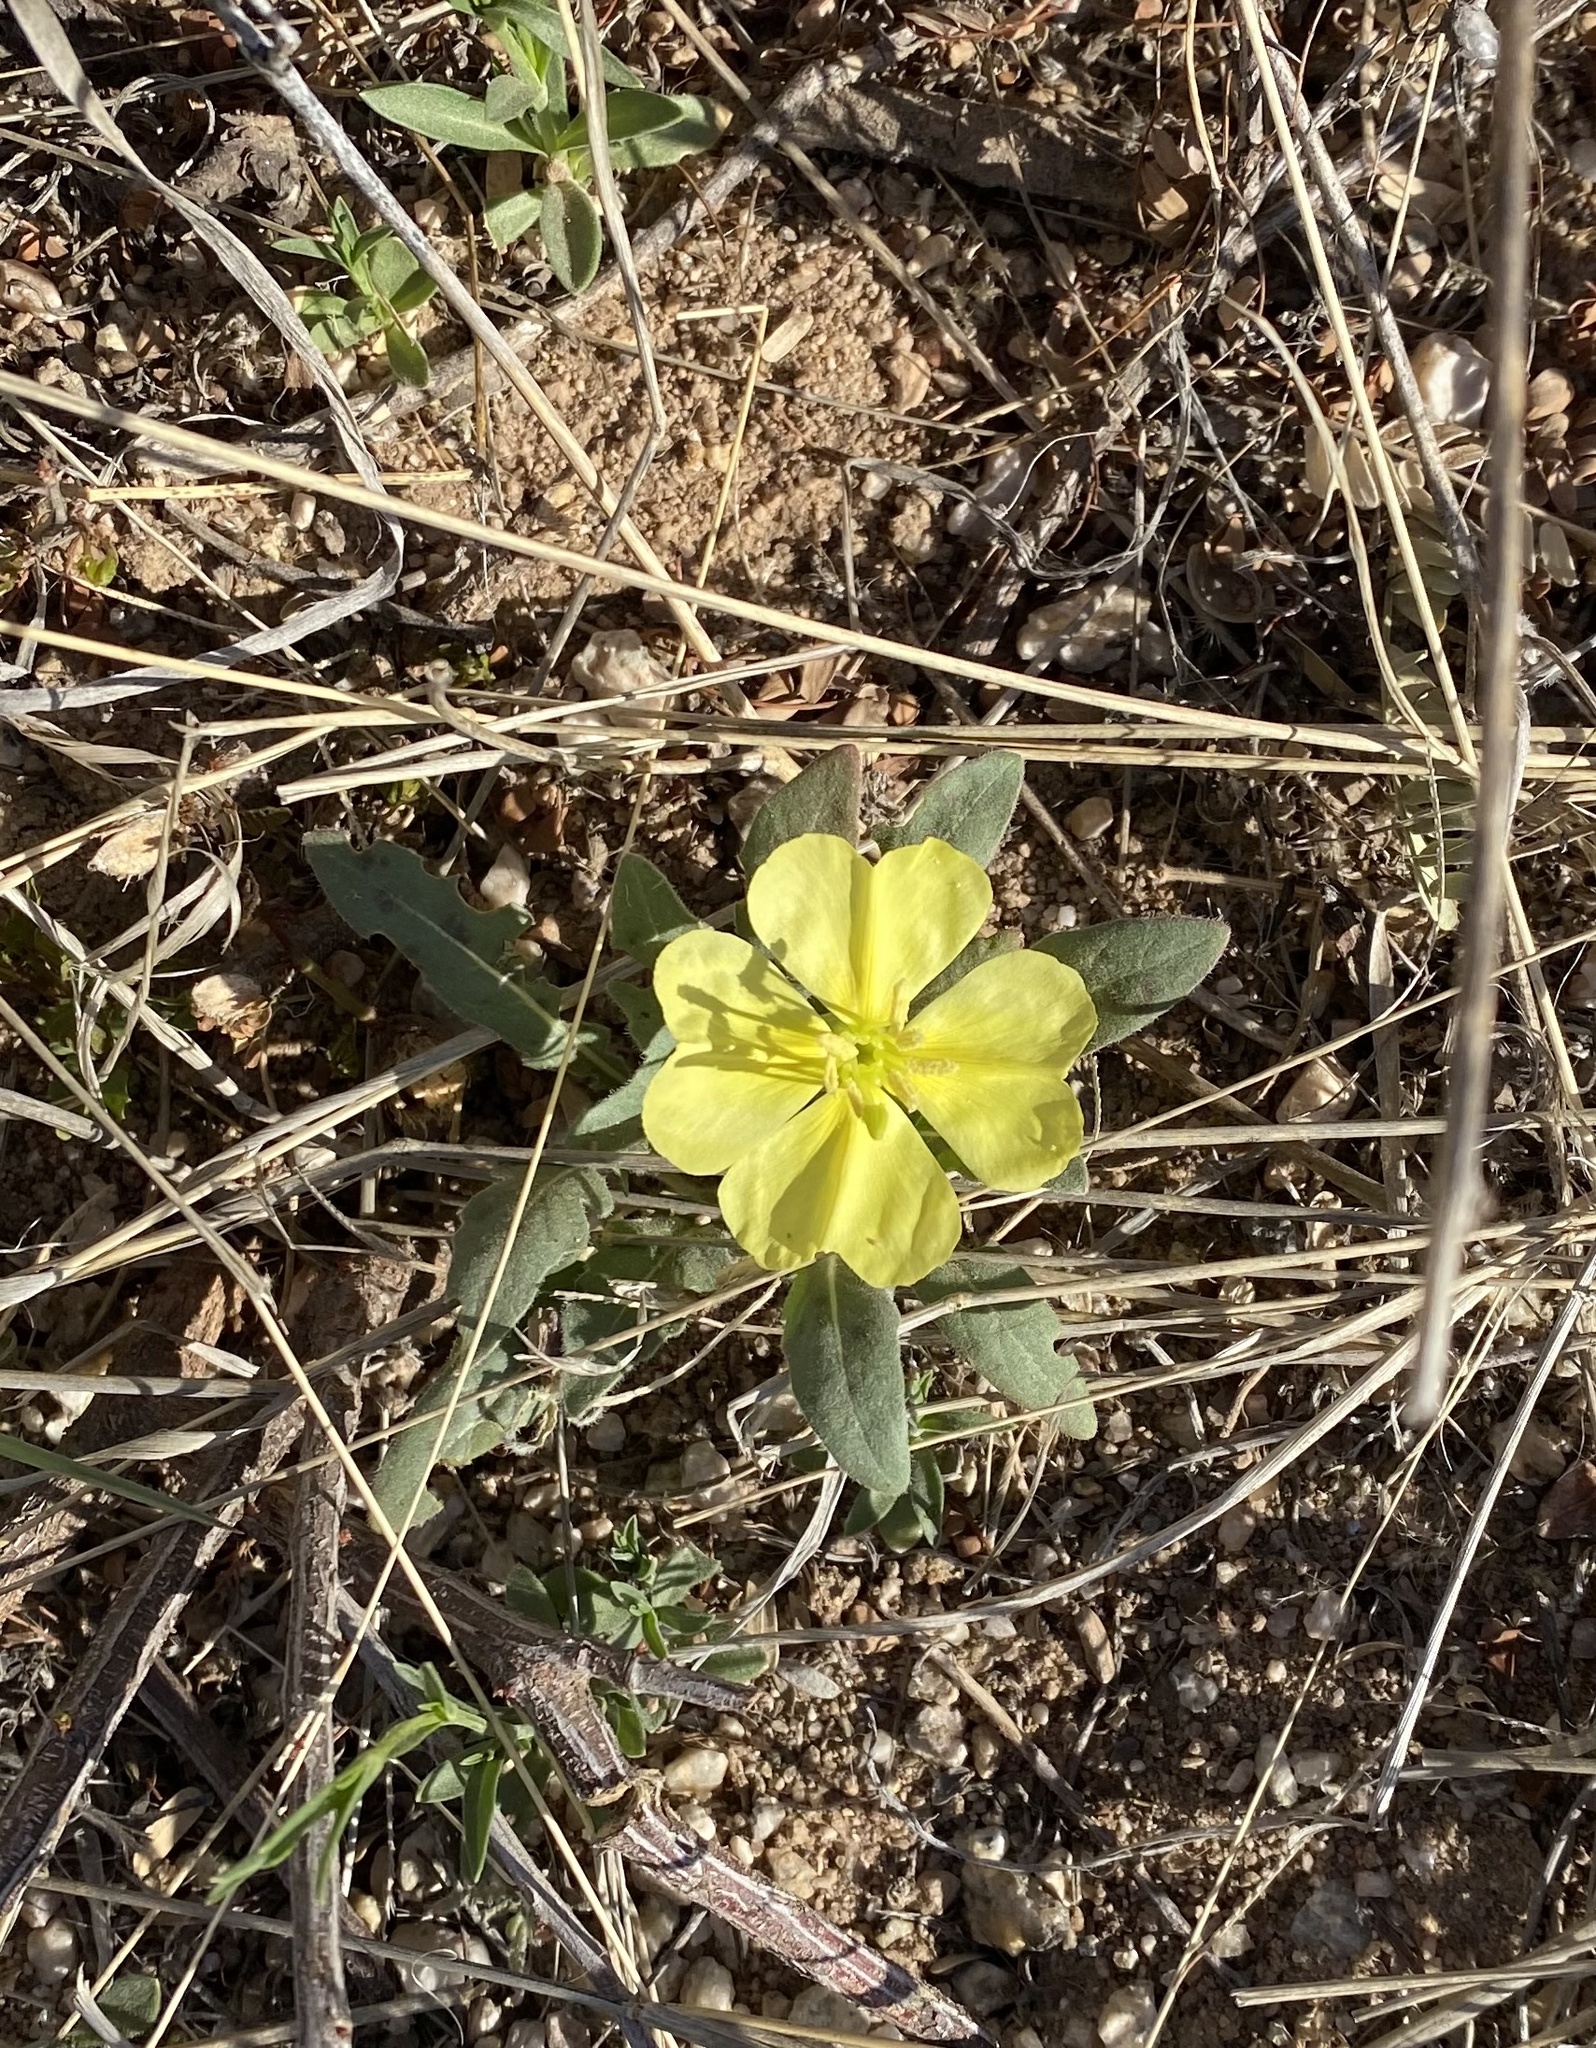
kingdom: Plantae
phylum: Tracheophyta
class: Magnoliopsida
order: Myrtales
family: Onagraceae
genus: Oenothera
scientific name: Oenothera primiveris
